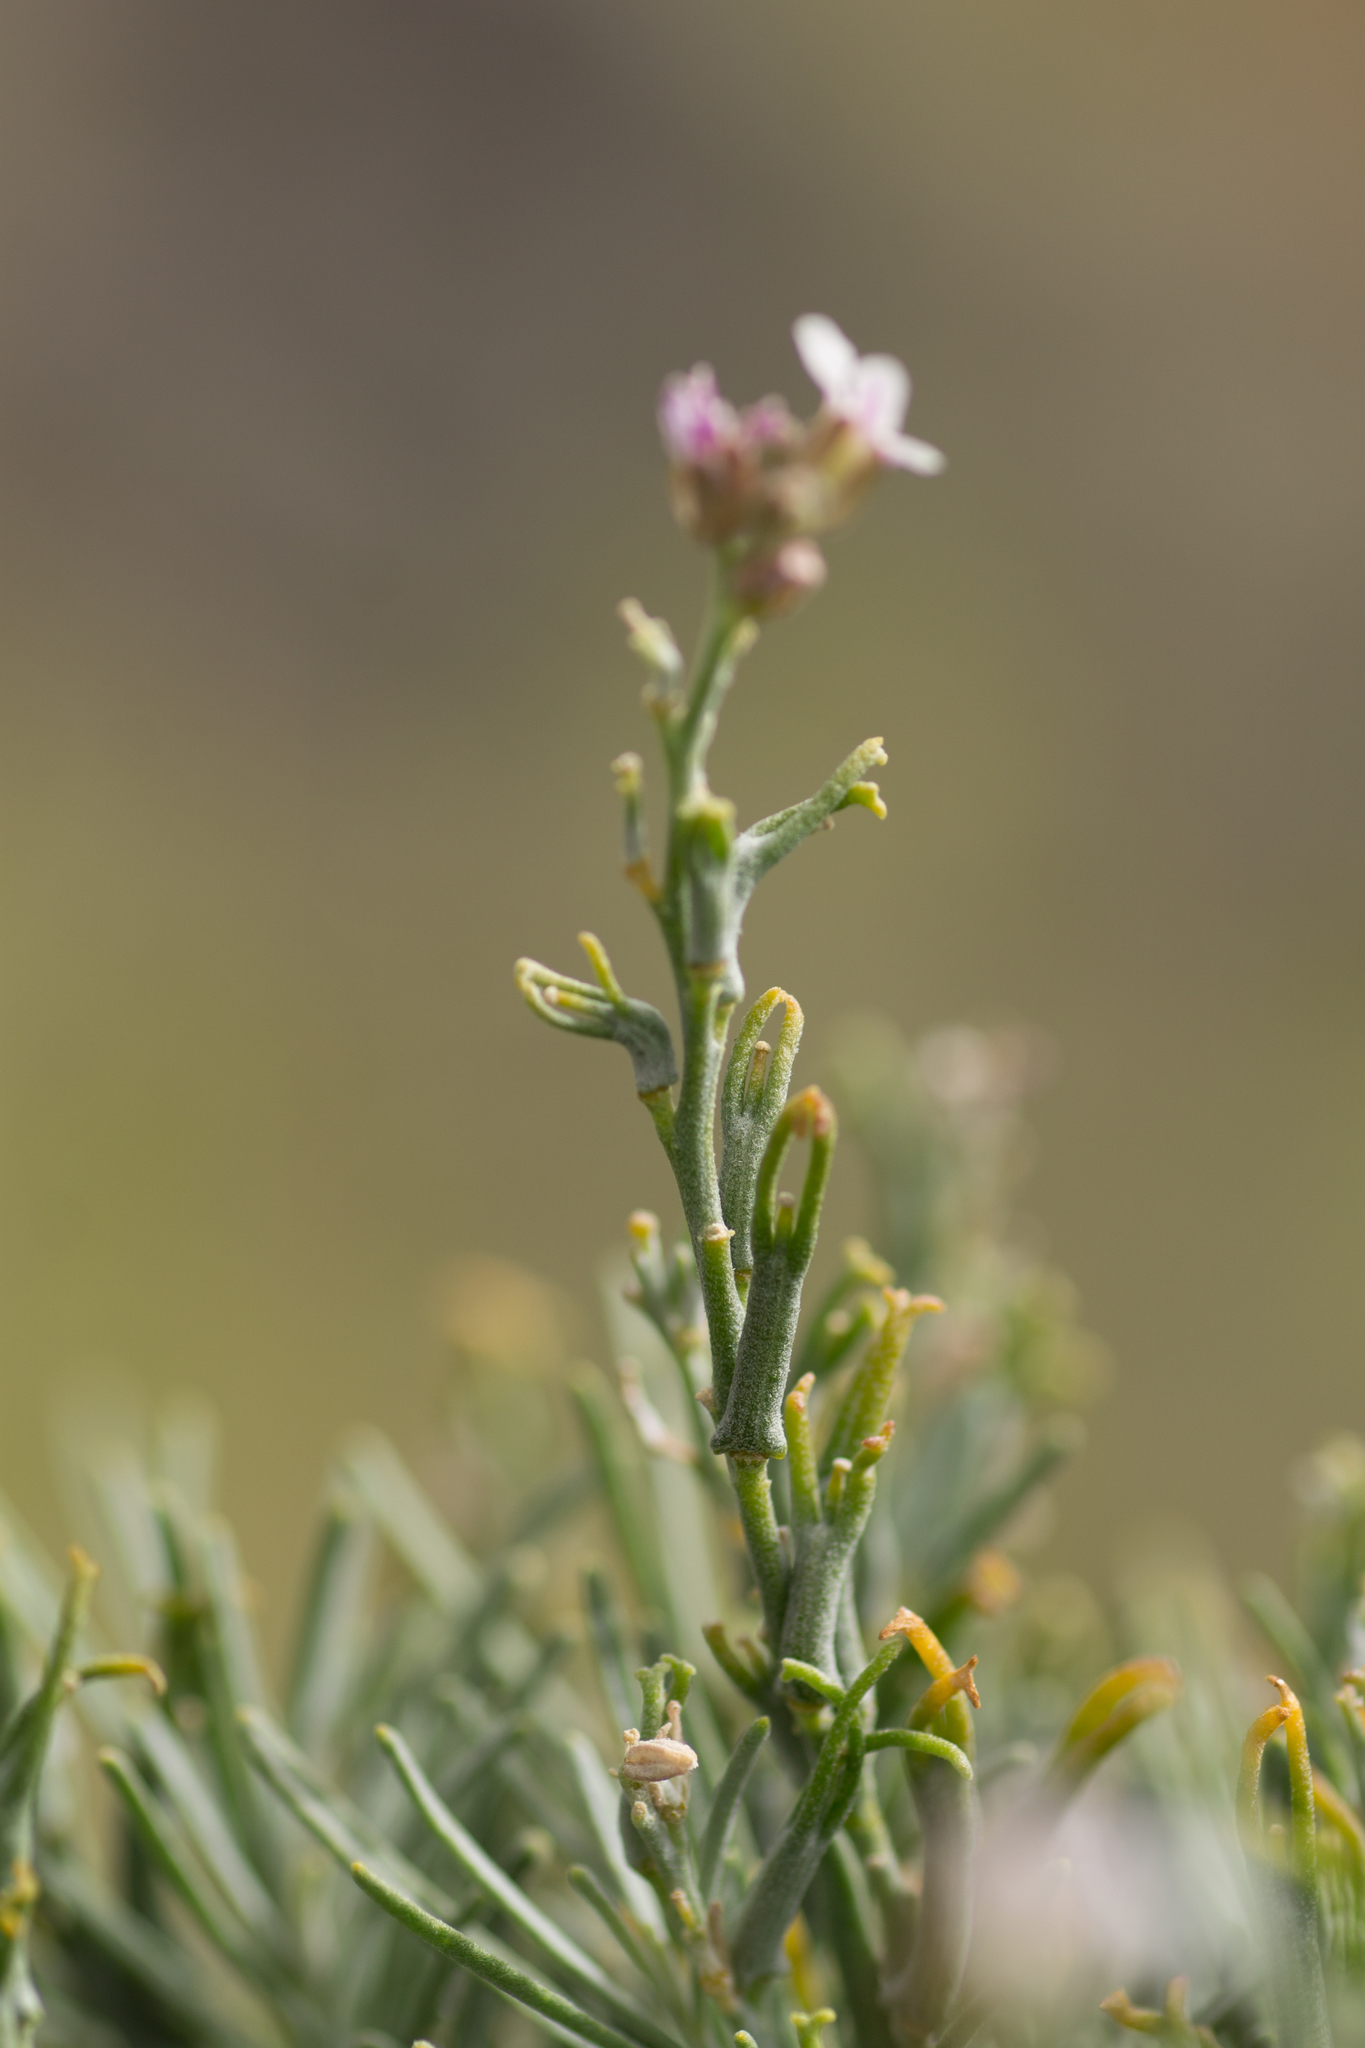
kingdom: Plantae
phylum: Tracheophyta
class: Magnoliopsida
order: Brassicales
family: Brassicaceae
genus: Parolinia
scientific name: Parolinia intermedia
